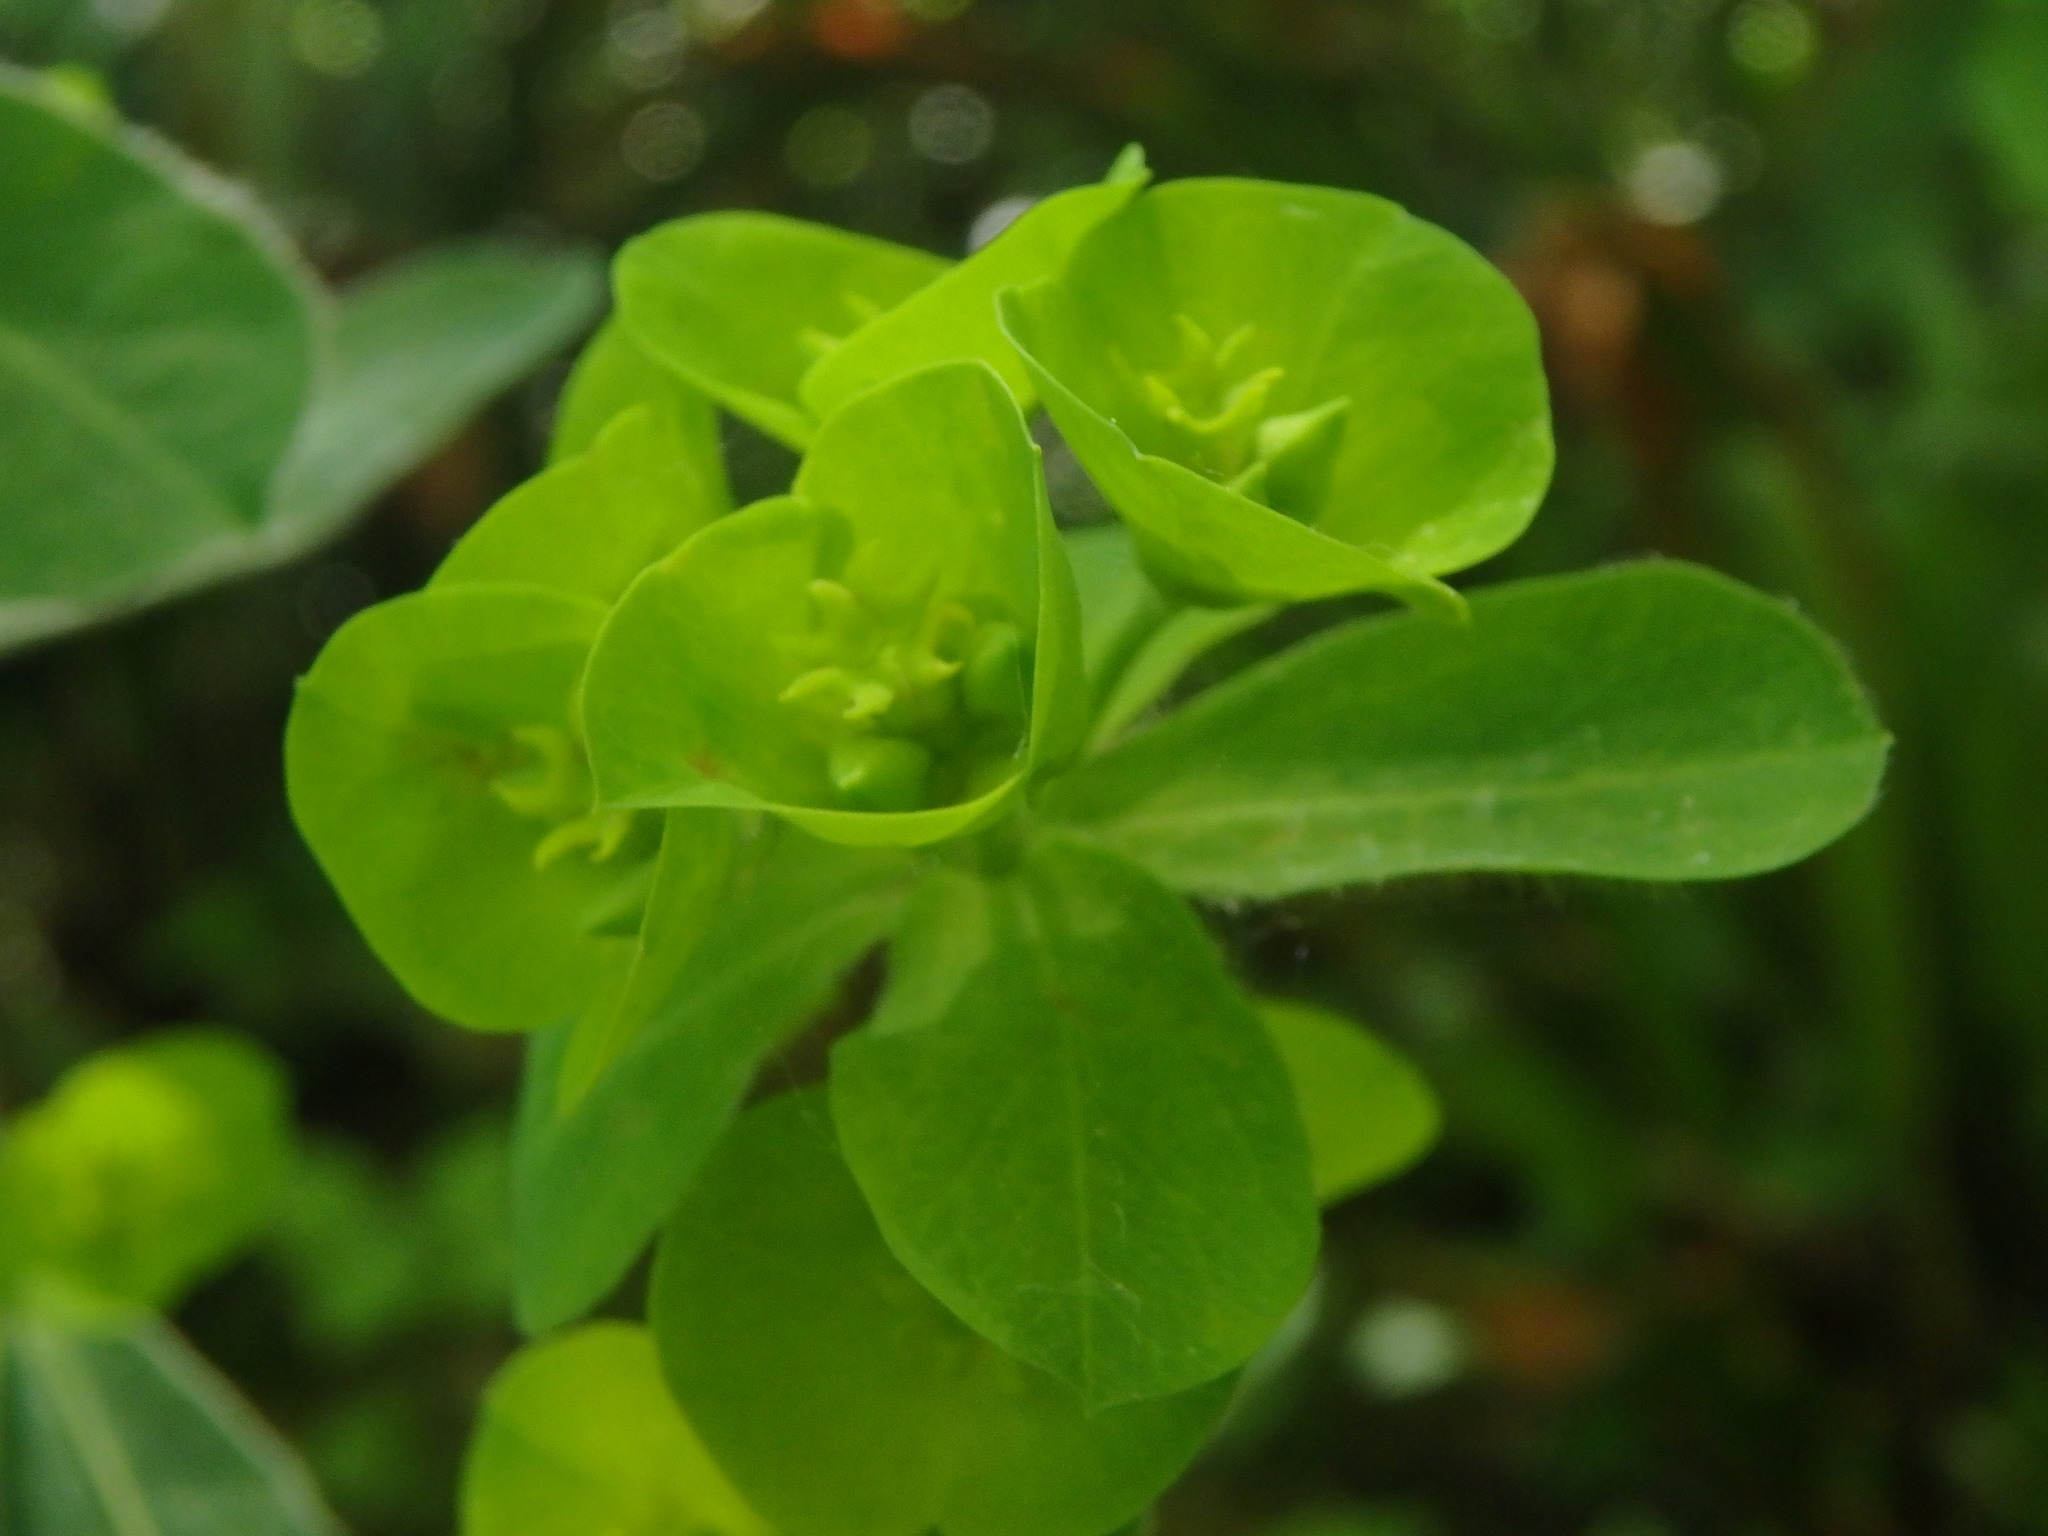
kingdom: Plantae
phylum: Tracheophyta
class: Magnoliopsida
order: Malpighiales
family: Euphorbiaceae
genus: Euphorbia
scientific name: Euphorbia amygdaloides
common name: Wood spurge
